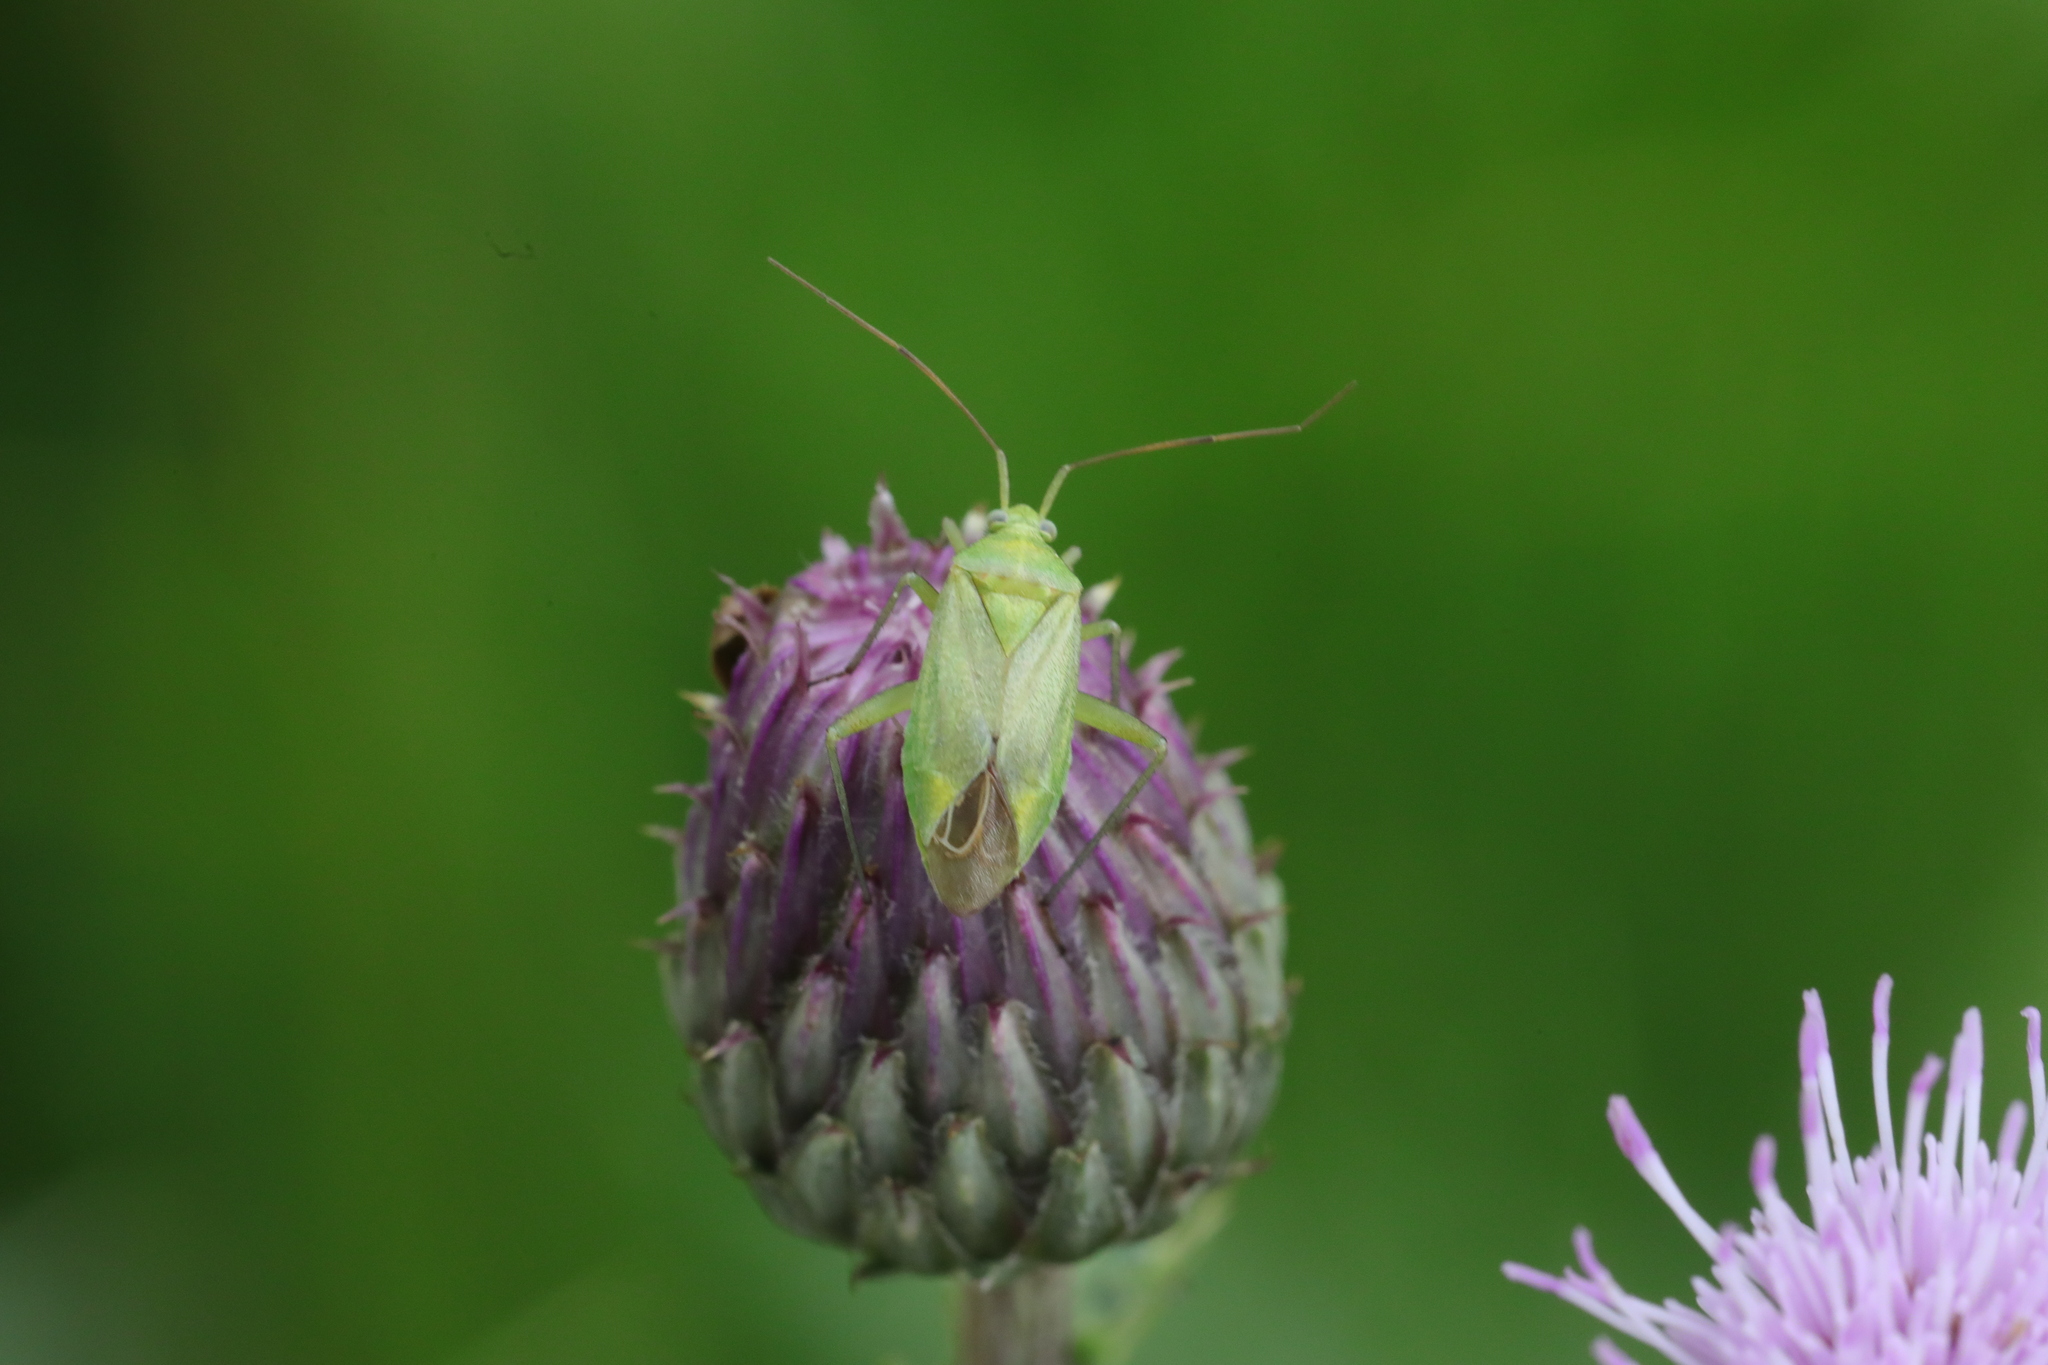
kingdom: Animalia
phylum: Arthropoda
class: Insecta
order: Hemiptera
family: Miridae
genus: Closterotomus
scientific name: Closterotomus norvegicus
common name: Plant bug
